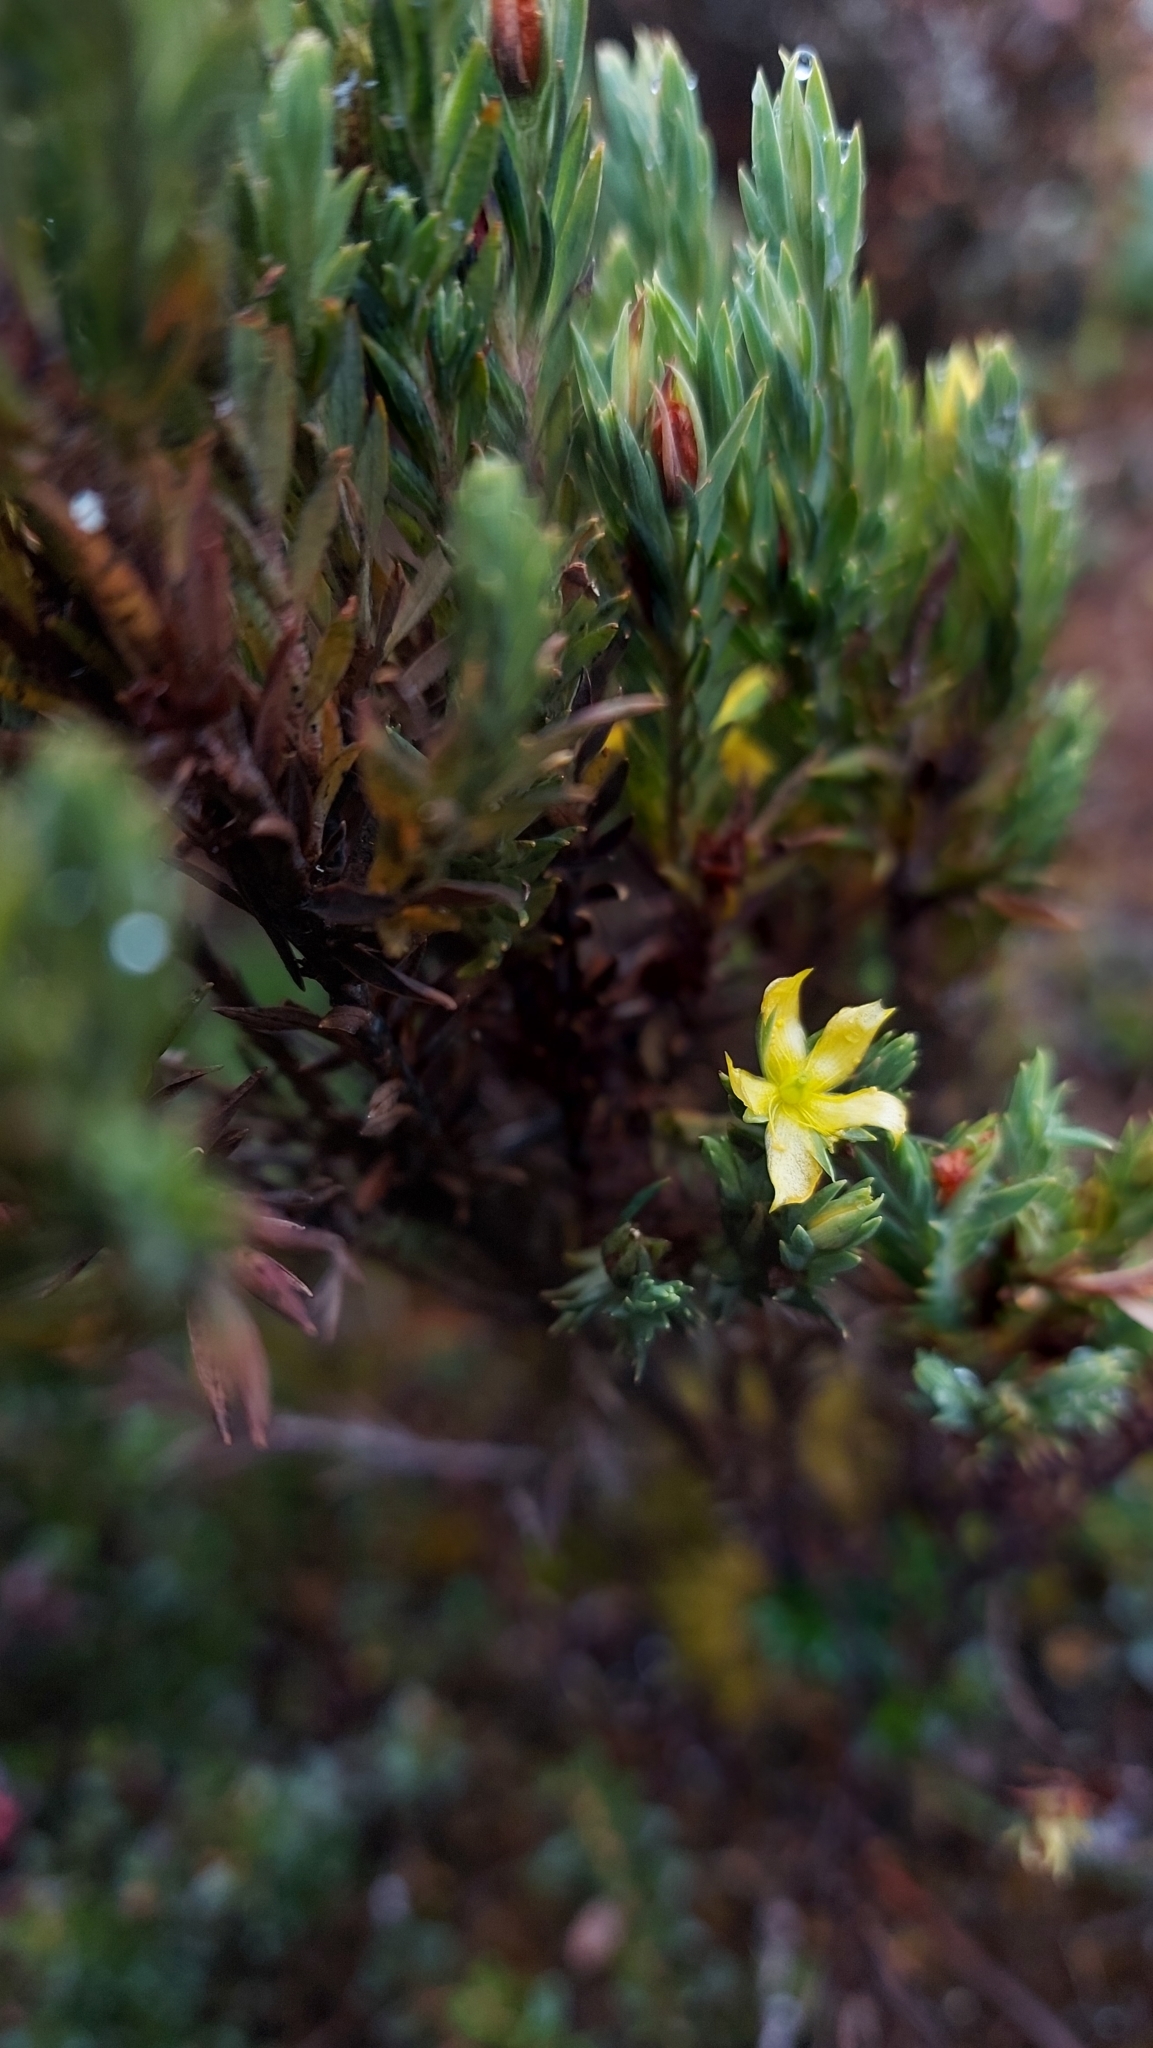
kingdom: Plantae
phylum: Tracheophyta
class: Magnoliopsida
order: Malpighiales
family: Hypericaceae
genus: Hypericum
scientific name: Hypericum laricifolium
